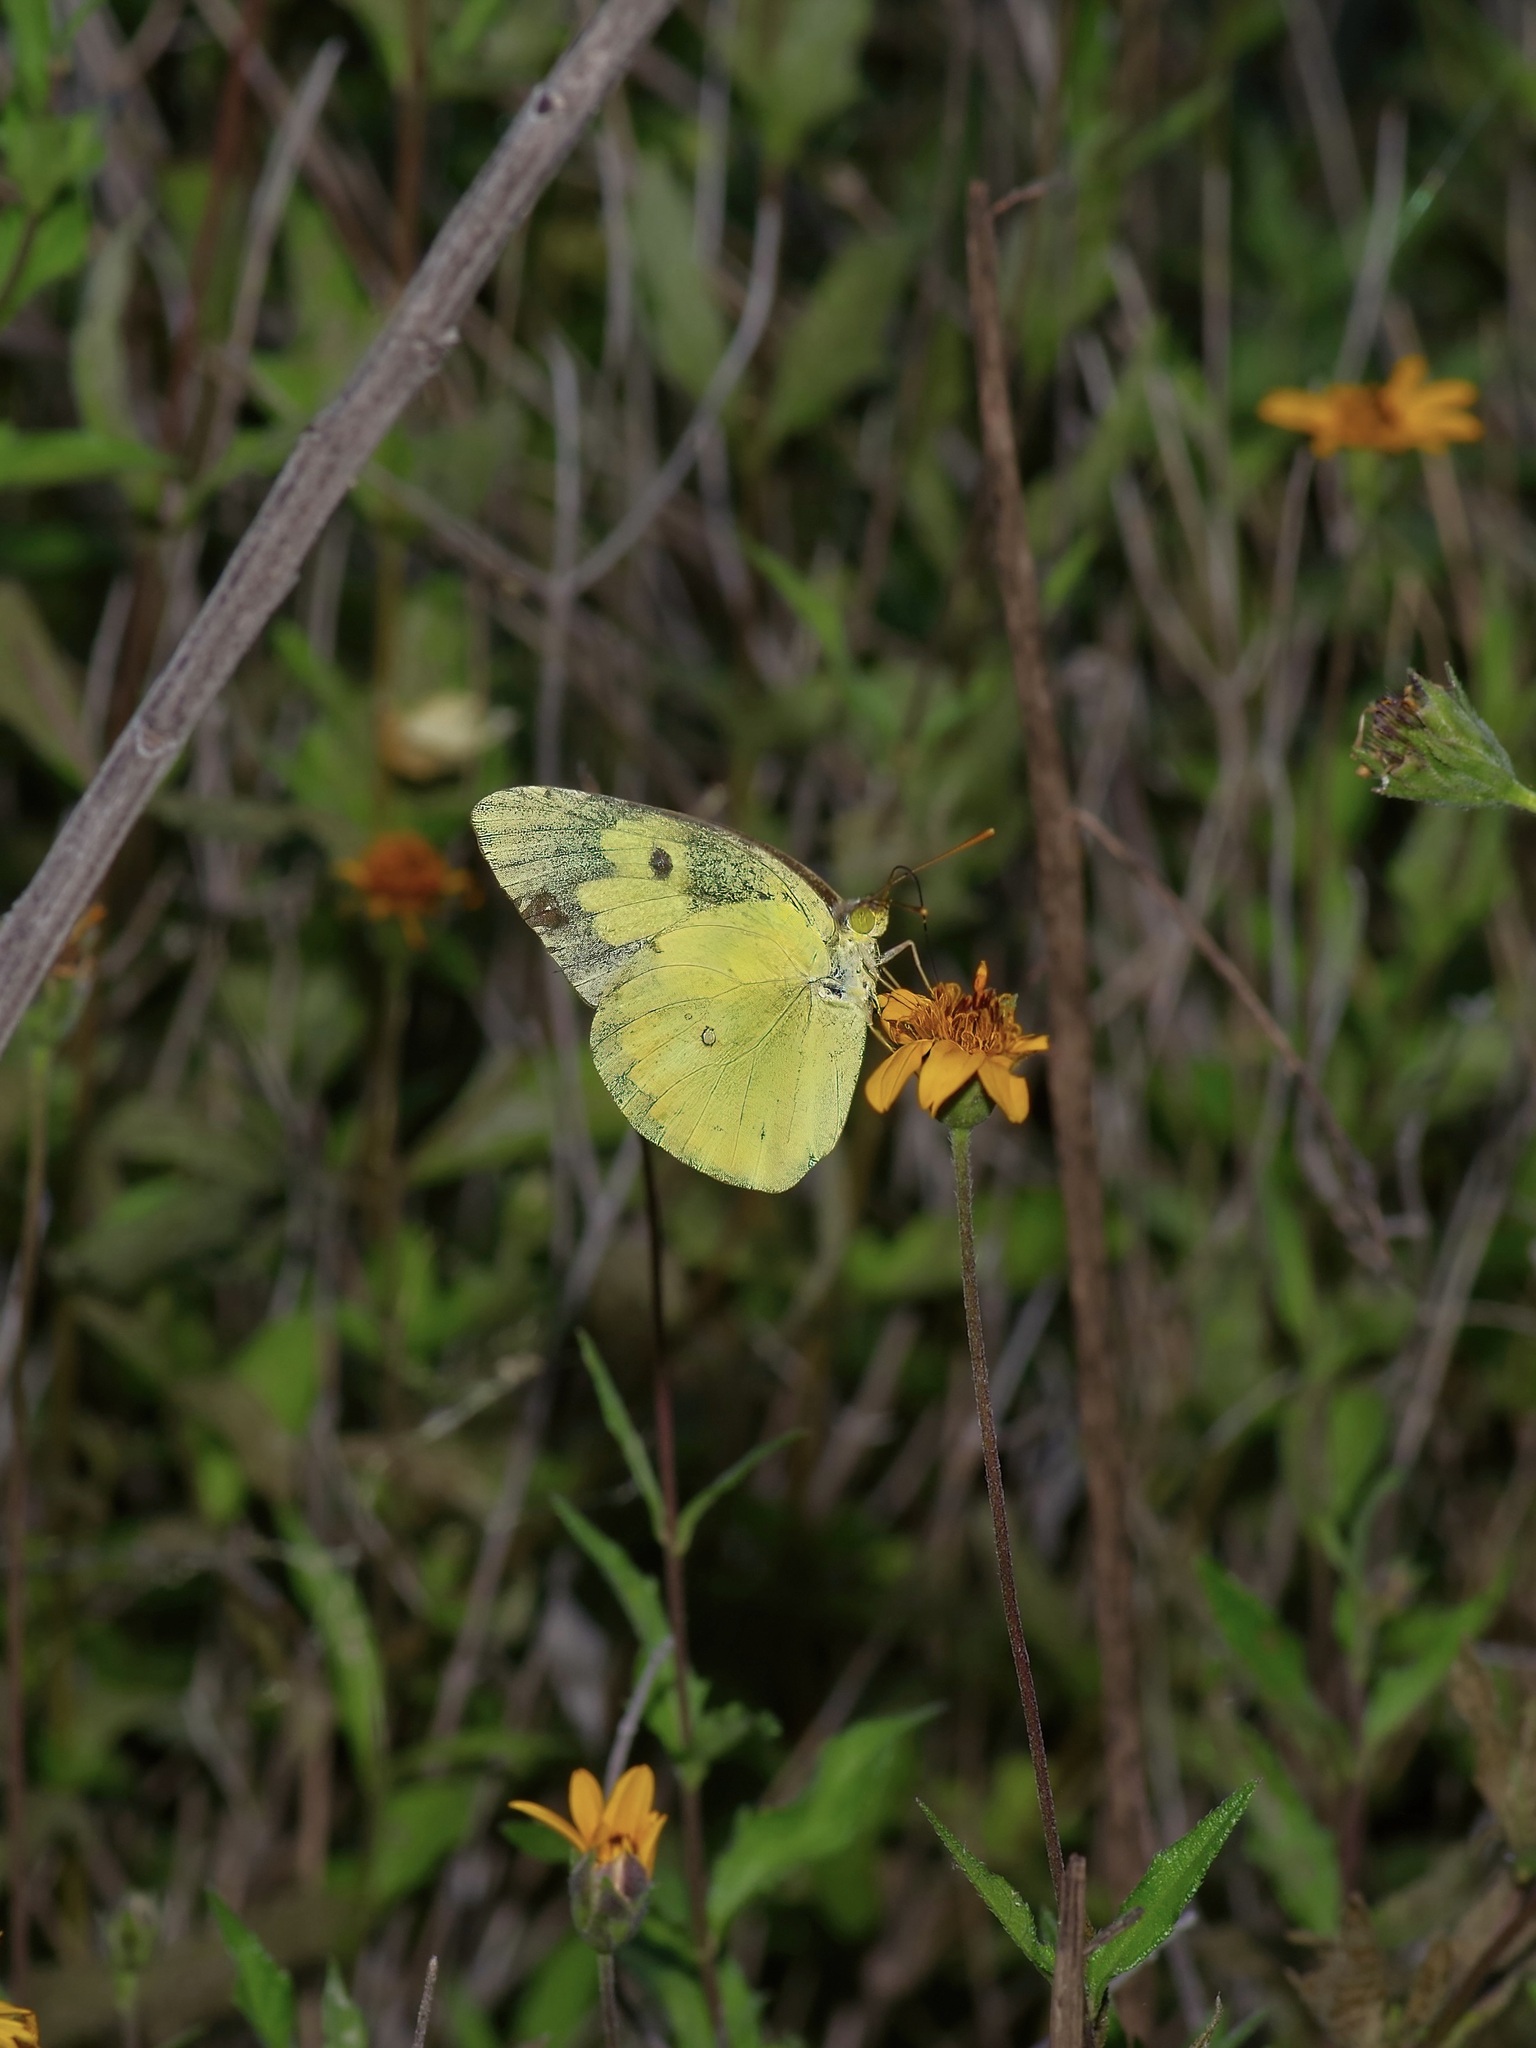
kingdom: Animalia
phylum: Arthropoda
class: Insecta
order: Lepidoptera
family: Pieridae
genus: Zerene
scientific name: Zerene cesonia
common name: Southern dogface
